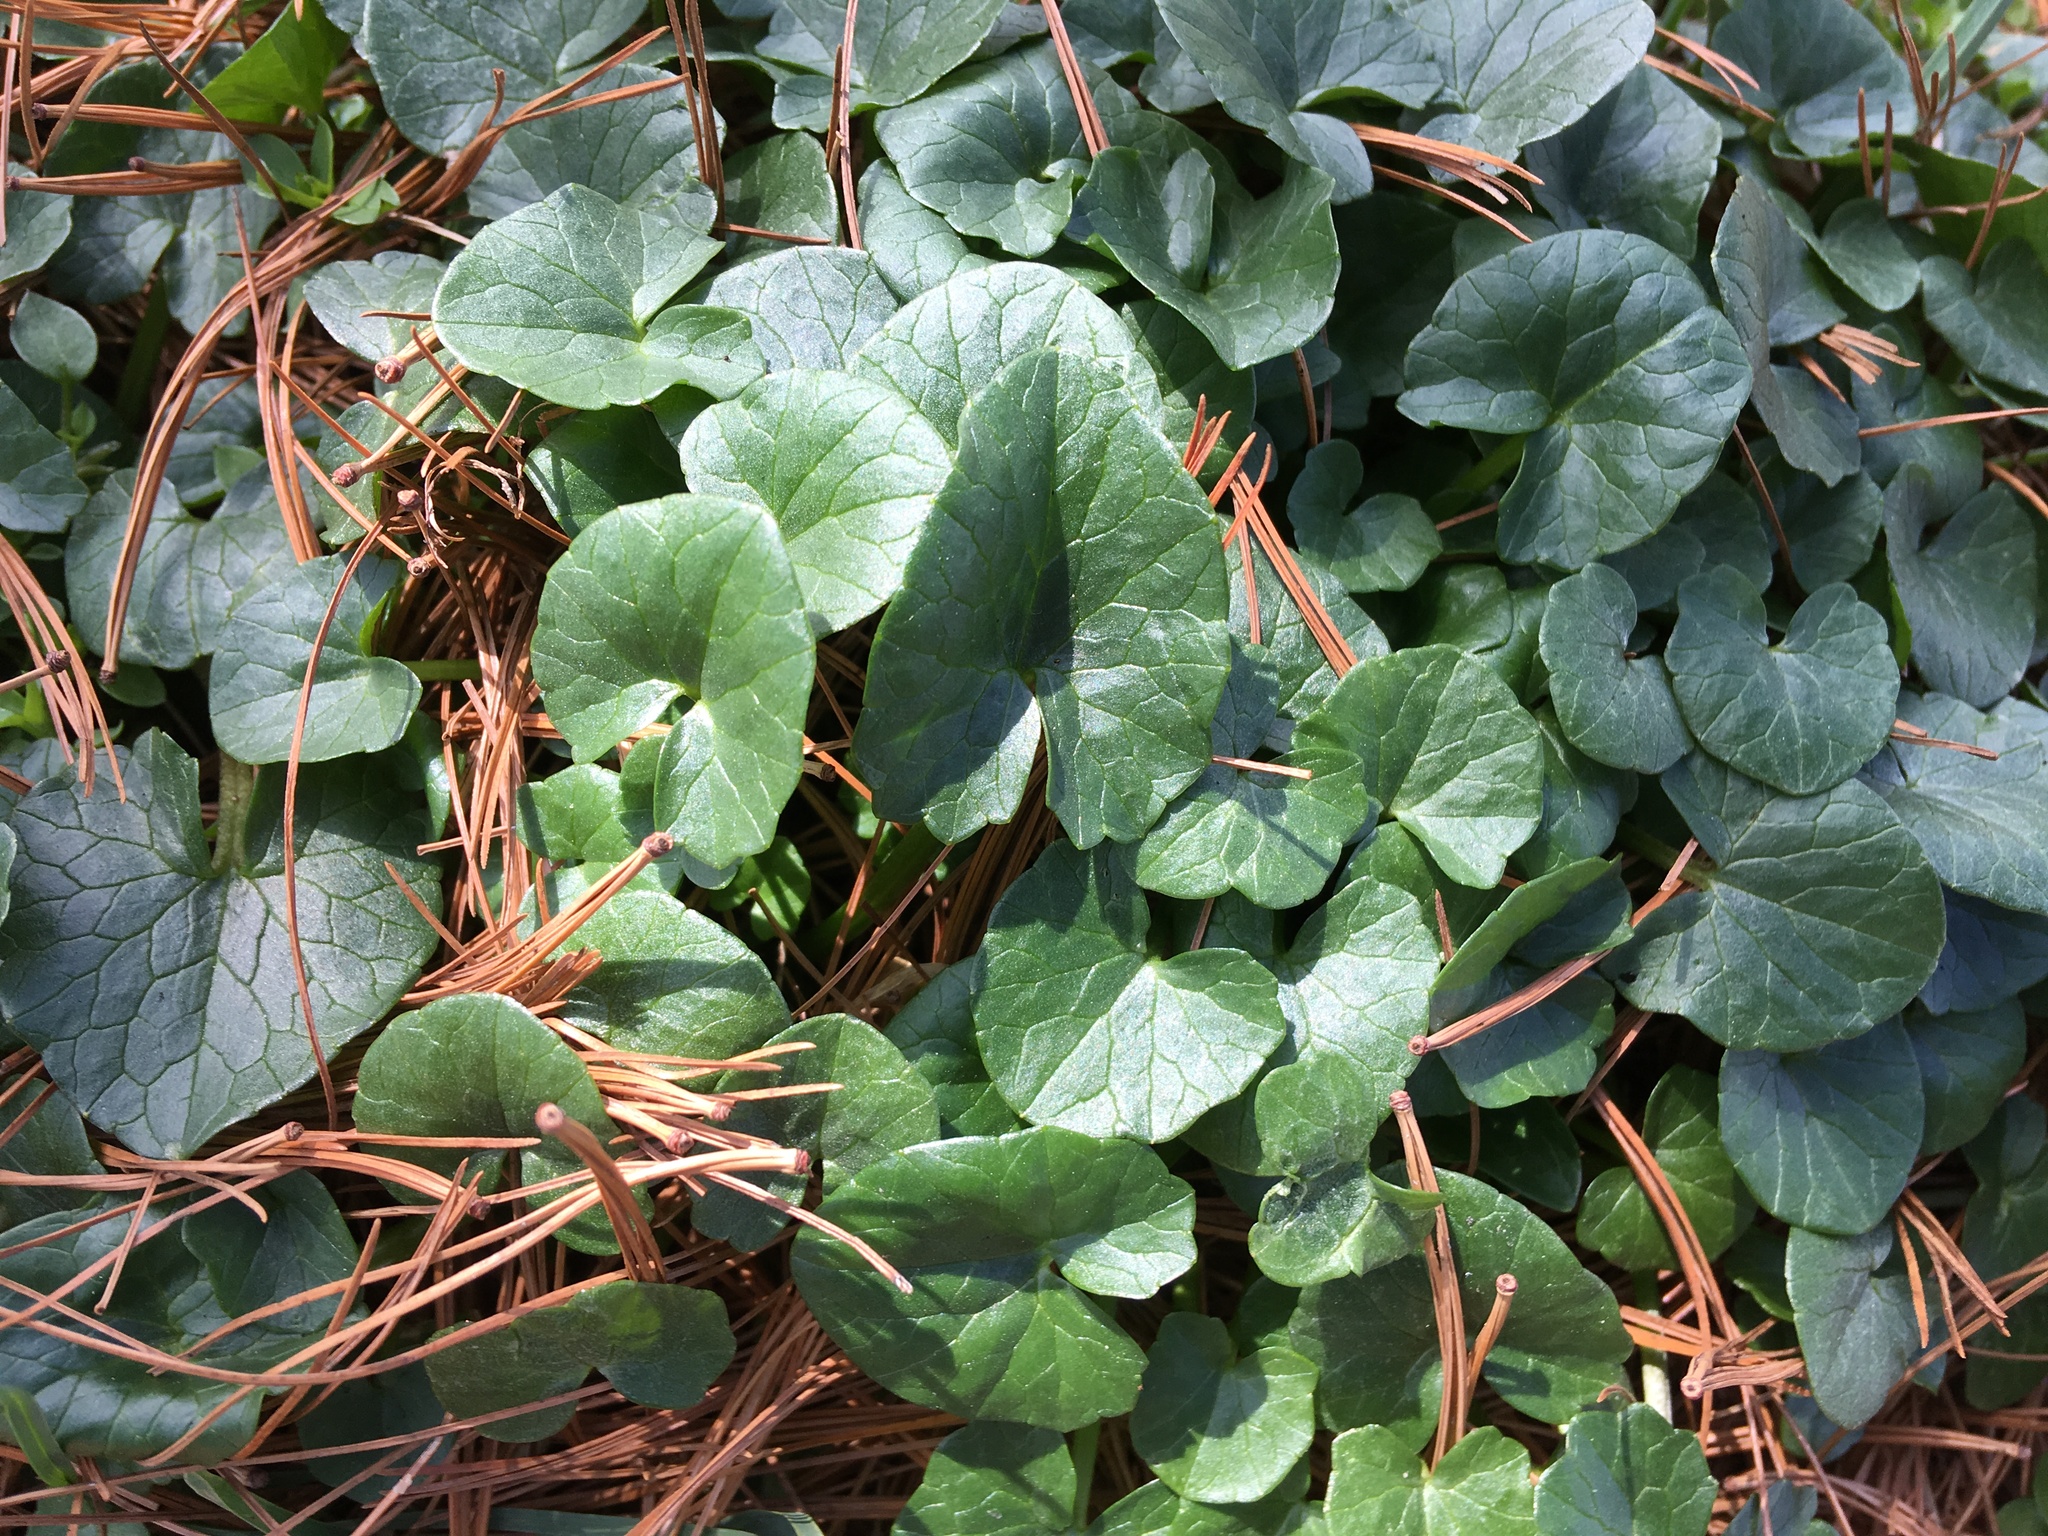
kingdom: Plantae
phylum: Tracheophyta
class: Magnoliopsida
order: Ranunculales
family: Ranunculaceae
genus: Ficaria
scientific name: Ficaria verna
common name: Lesser celandine
